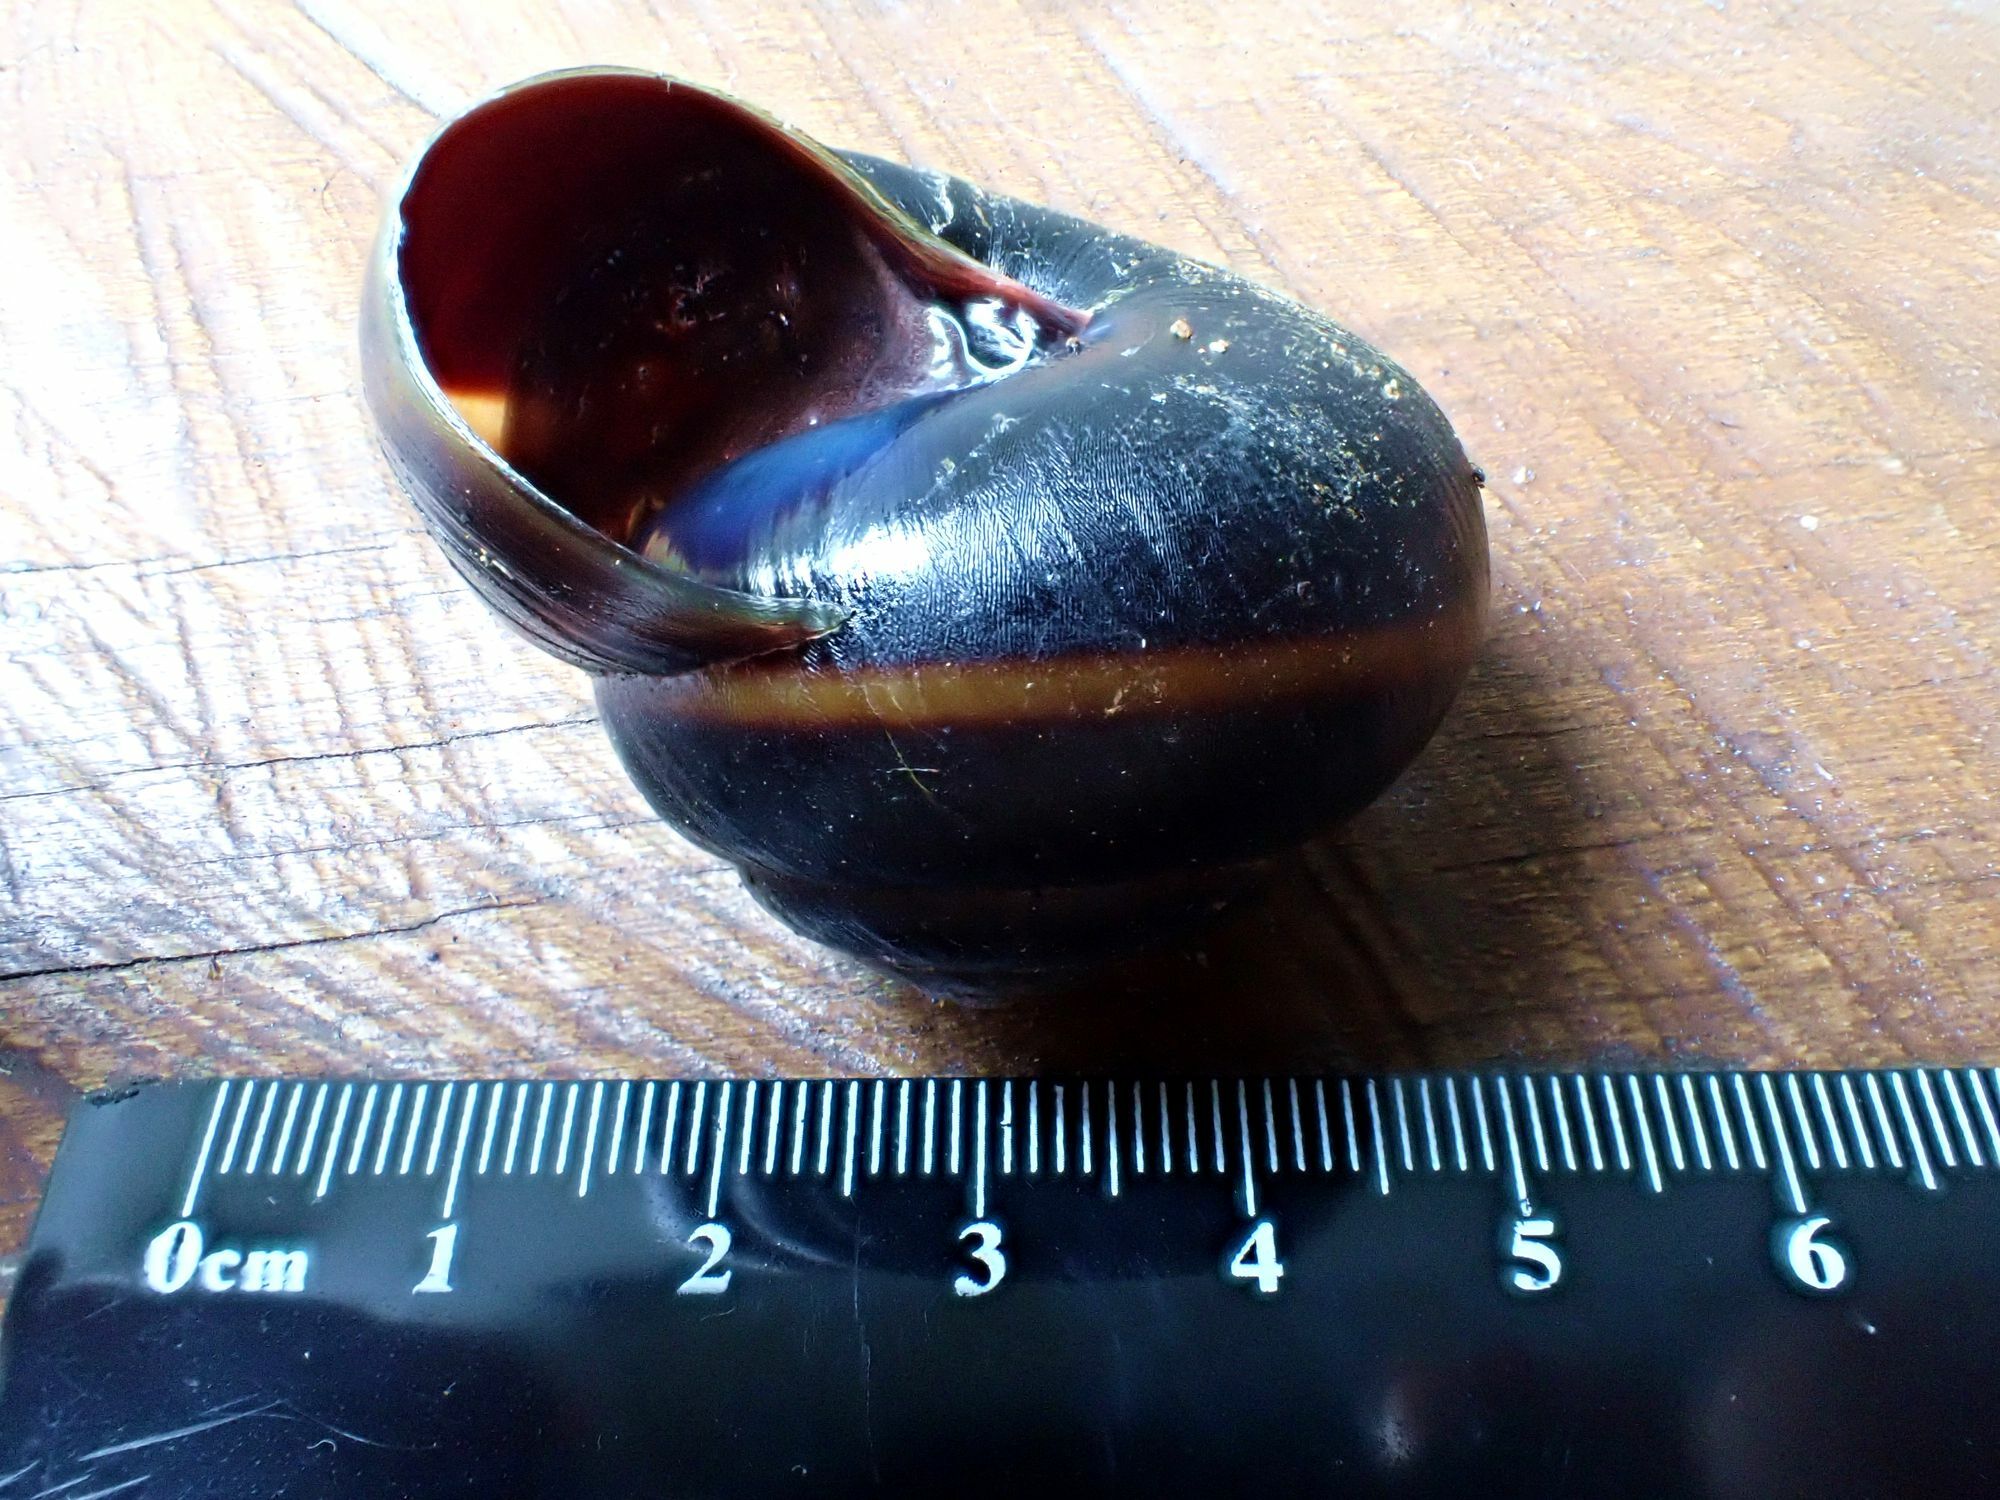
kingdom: Animalia
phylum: Mollusca
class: Gastropoda
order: Stylommatophora
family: Camaenidae
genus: Gnarosophia
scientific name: Gnarosophia bellendenkerensis
